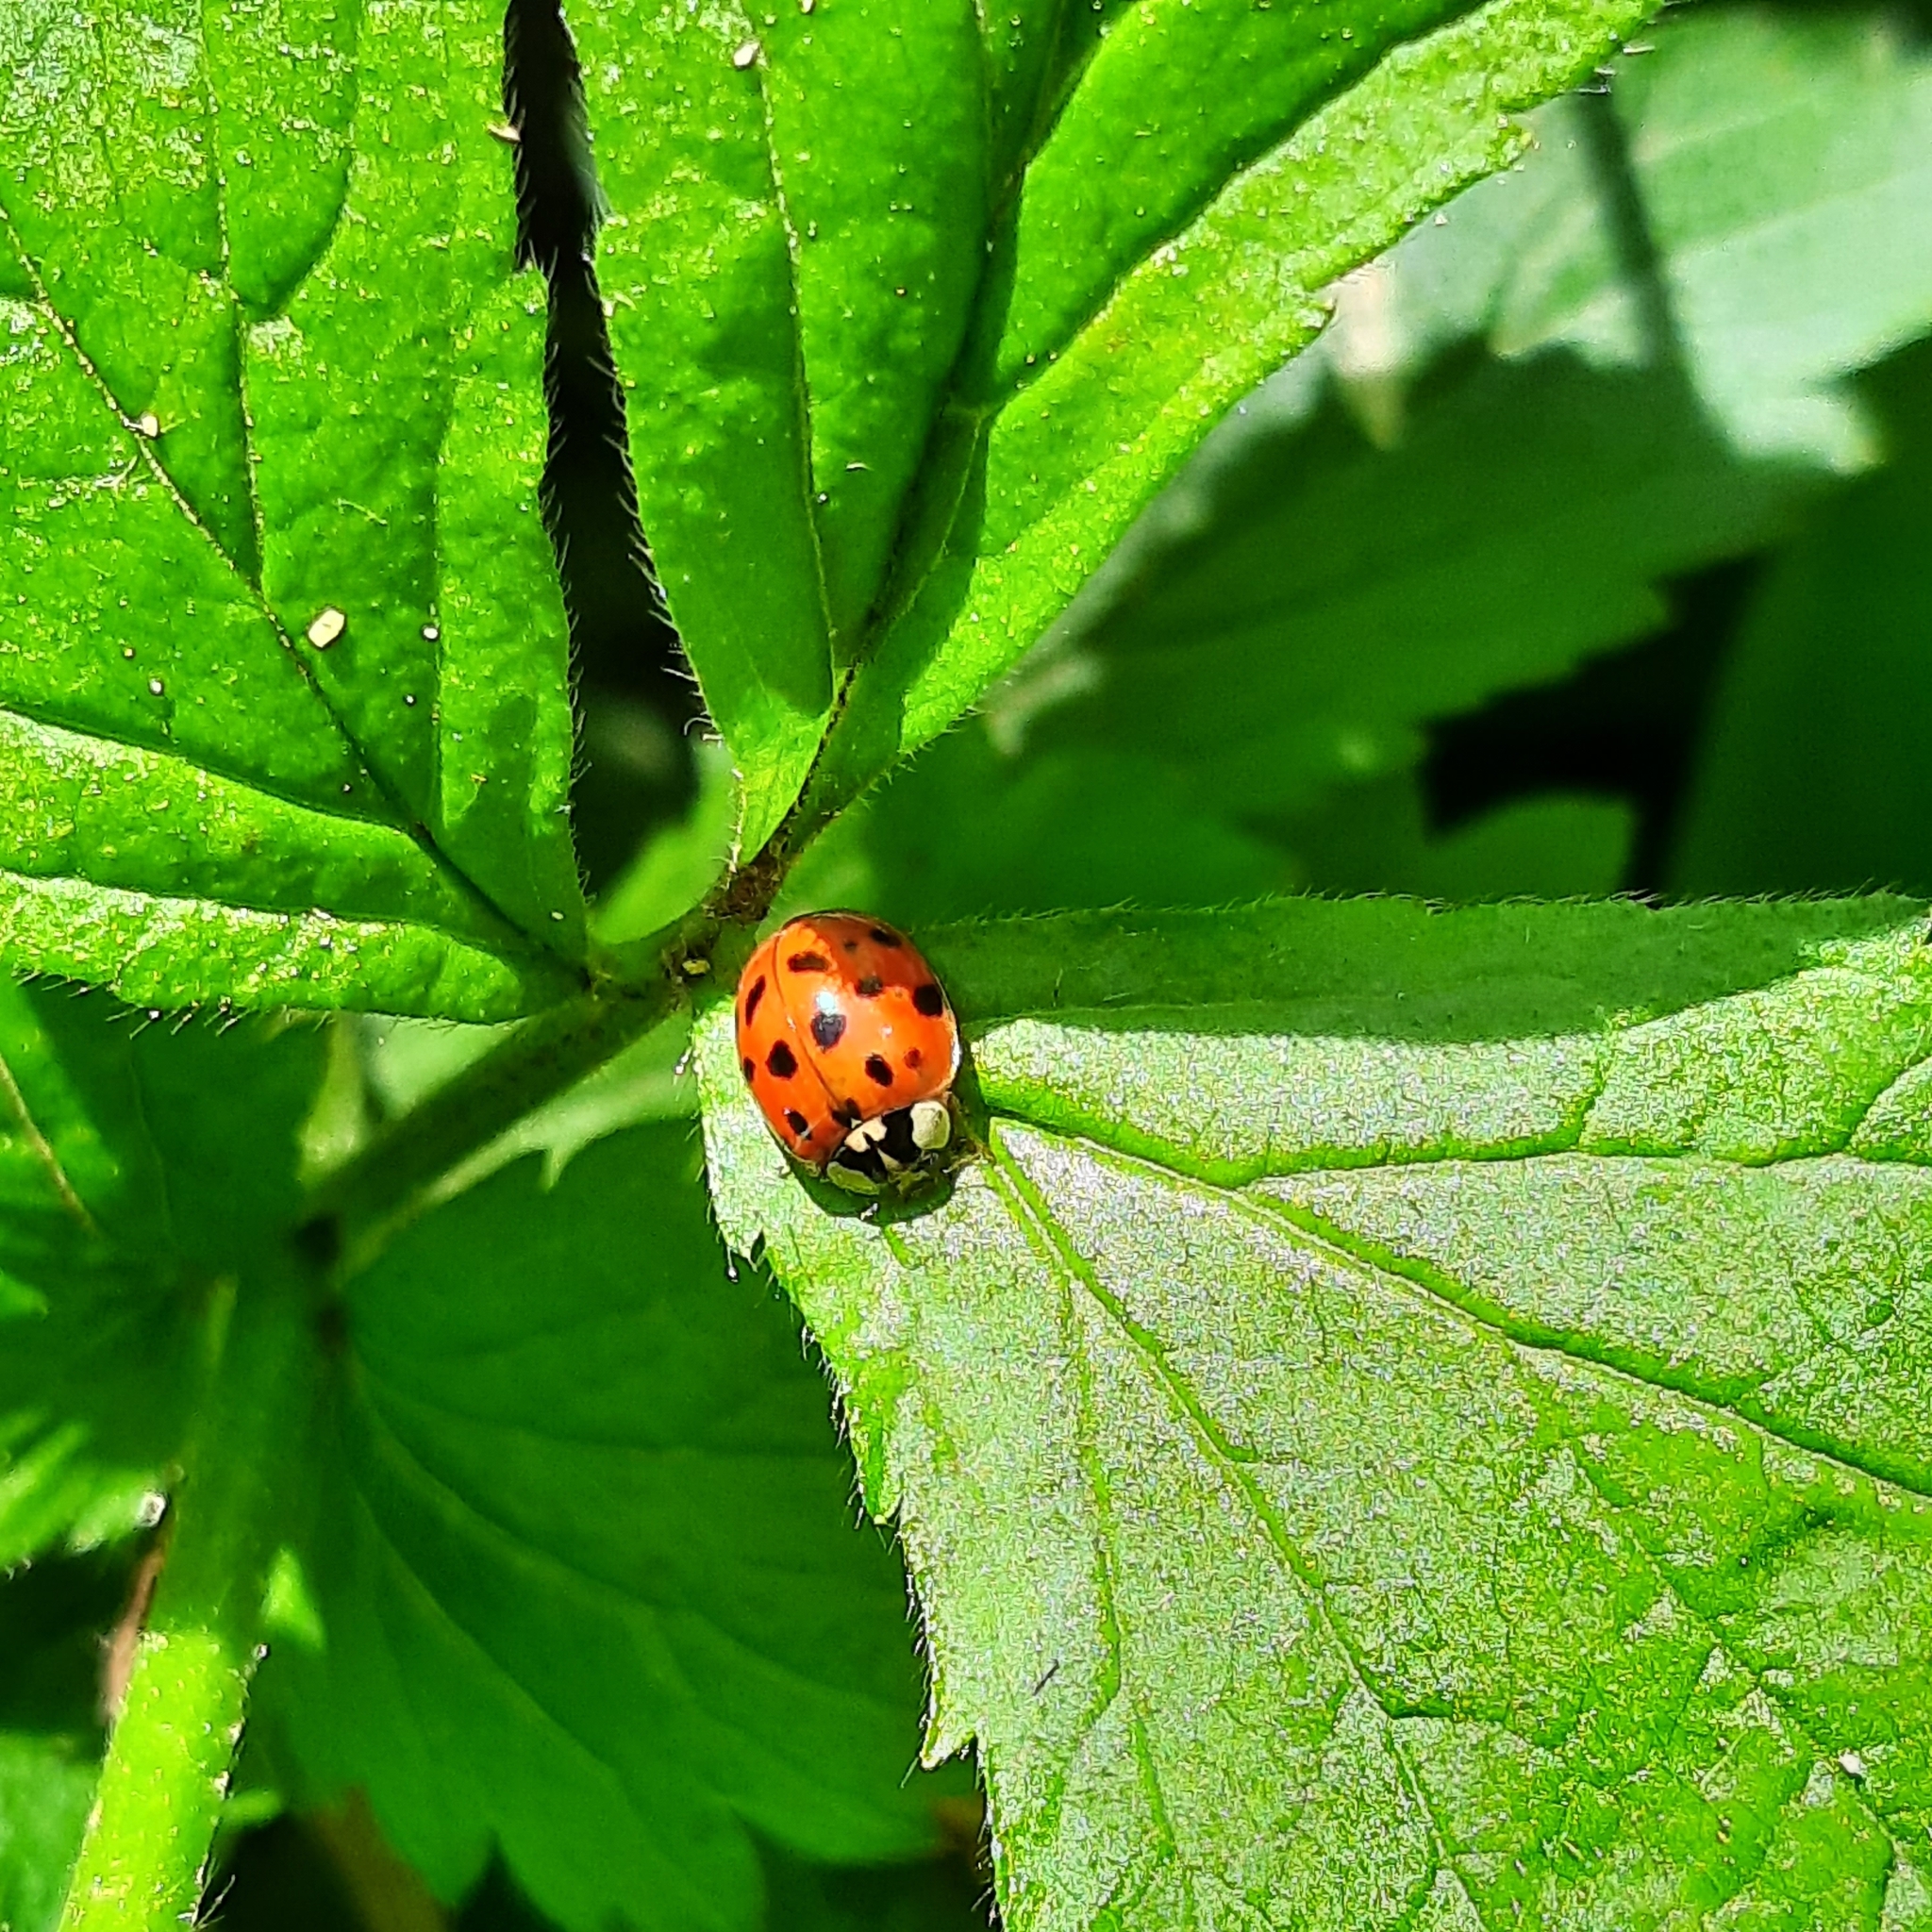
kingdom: Animalia
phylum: Arthropoda
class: Insecta
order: Coleoptera
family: Coccinellidae
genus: Harmonia
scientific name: Harmonia axyridis
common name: Harlequin ladybird
